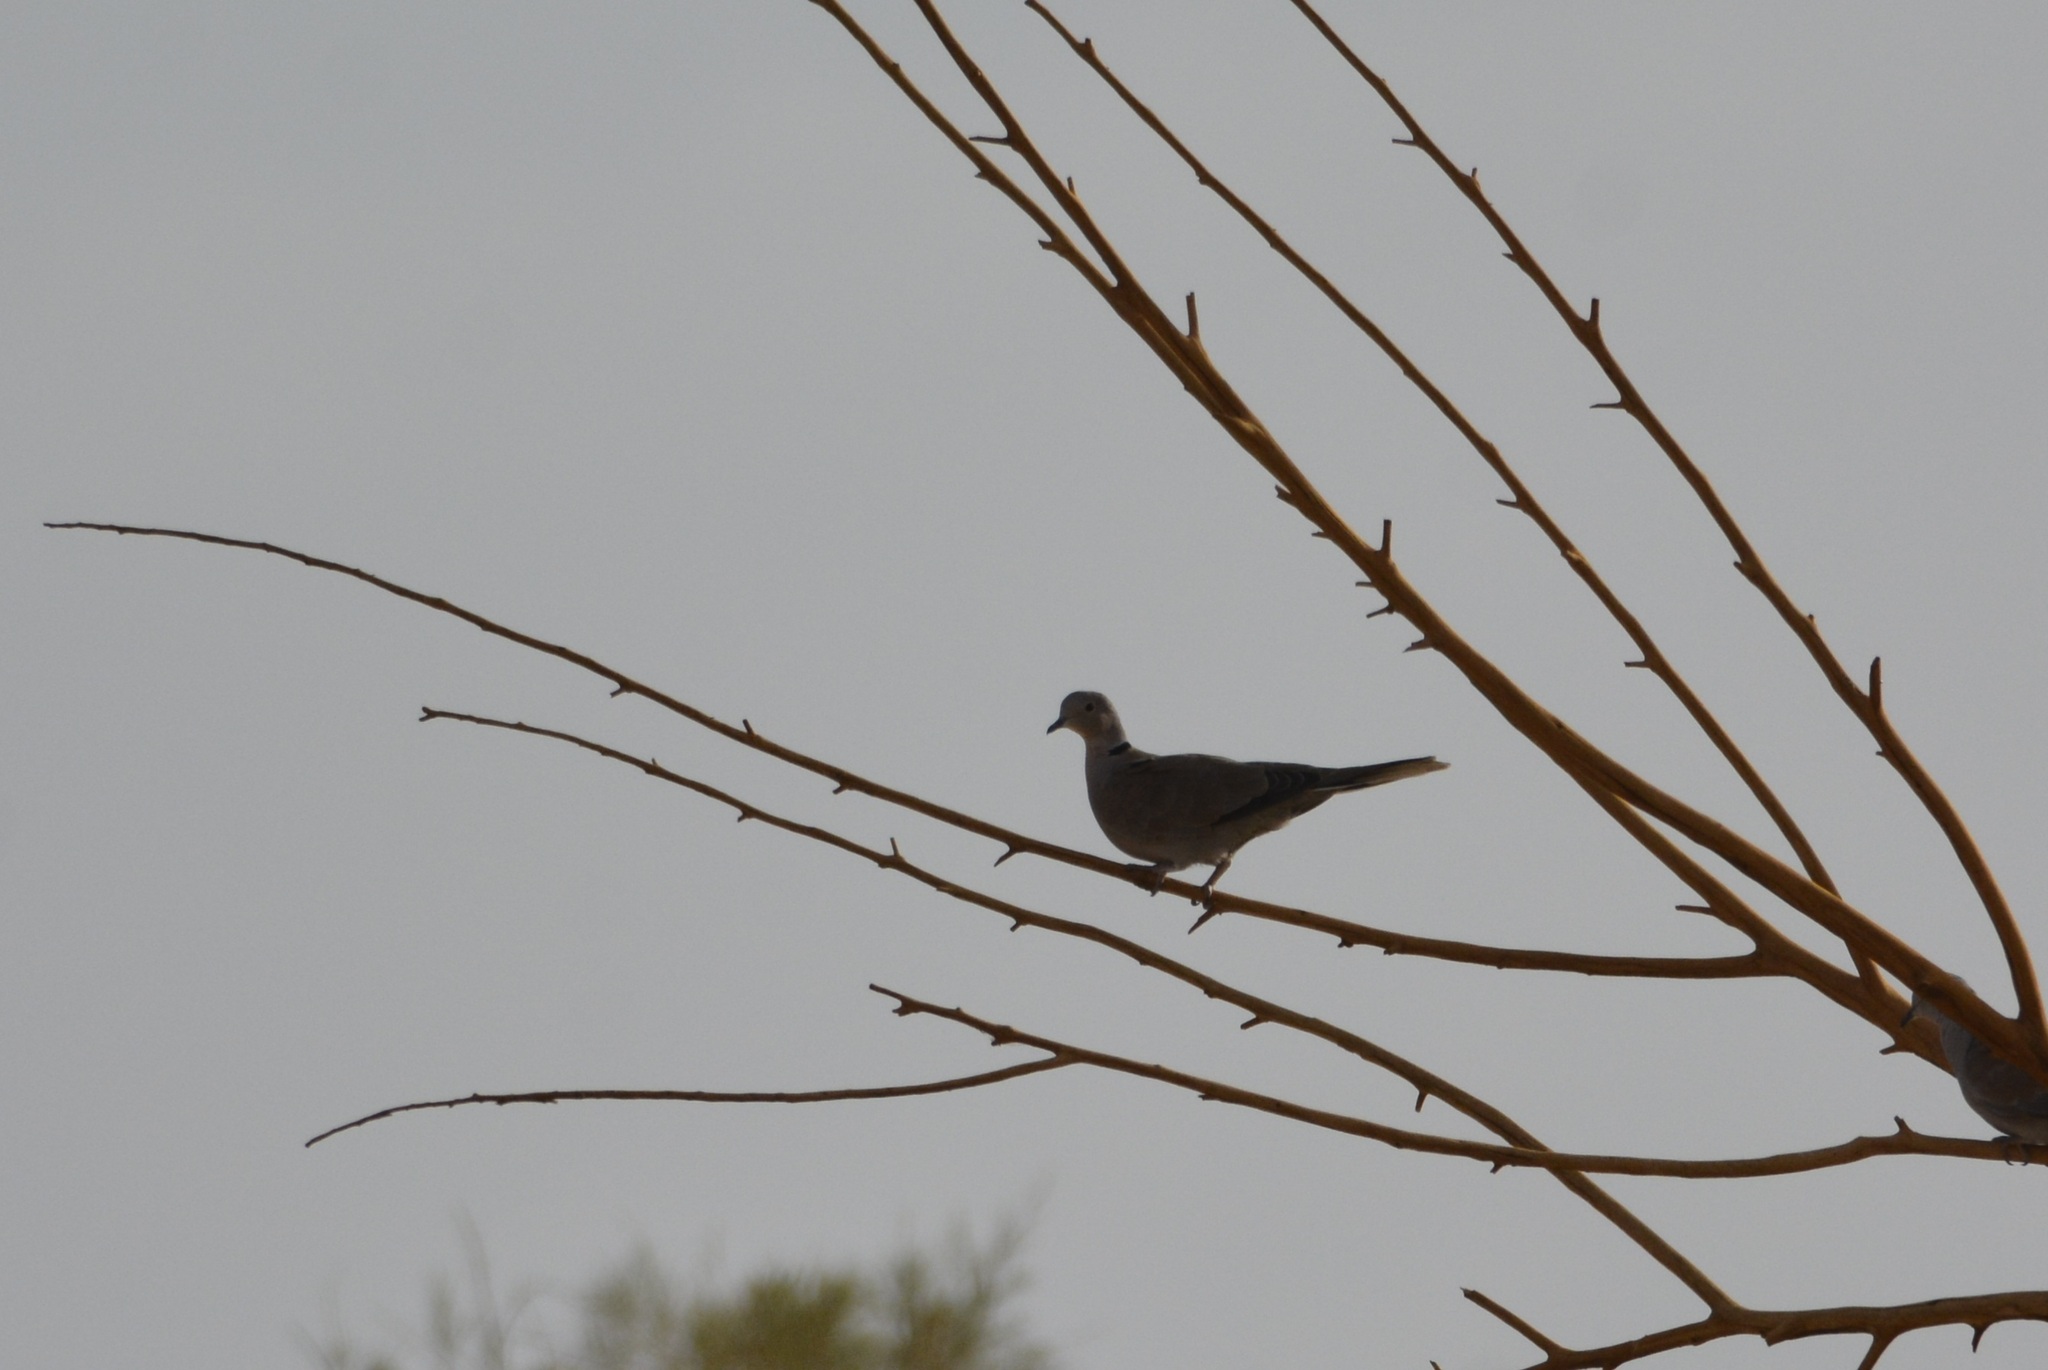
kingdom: Animalia
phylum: Chordata
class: Aves
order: Columbiformes
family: Columbidae
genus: Streptopelia
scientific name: Streptopelia decaocto
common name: Eurasian collared dove
